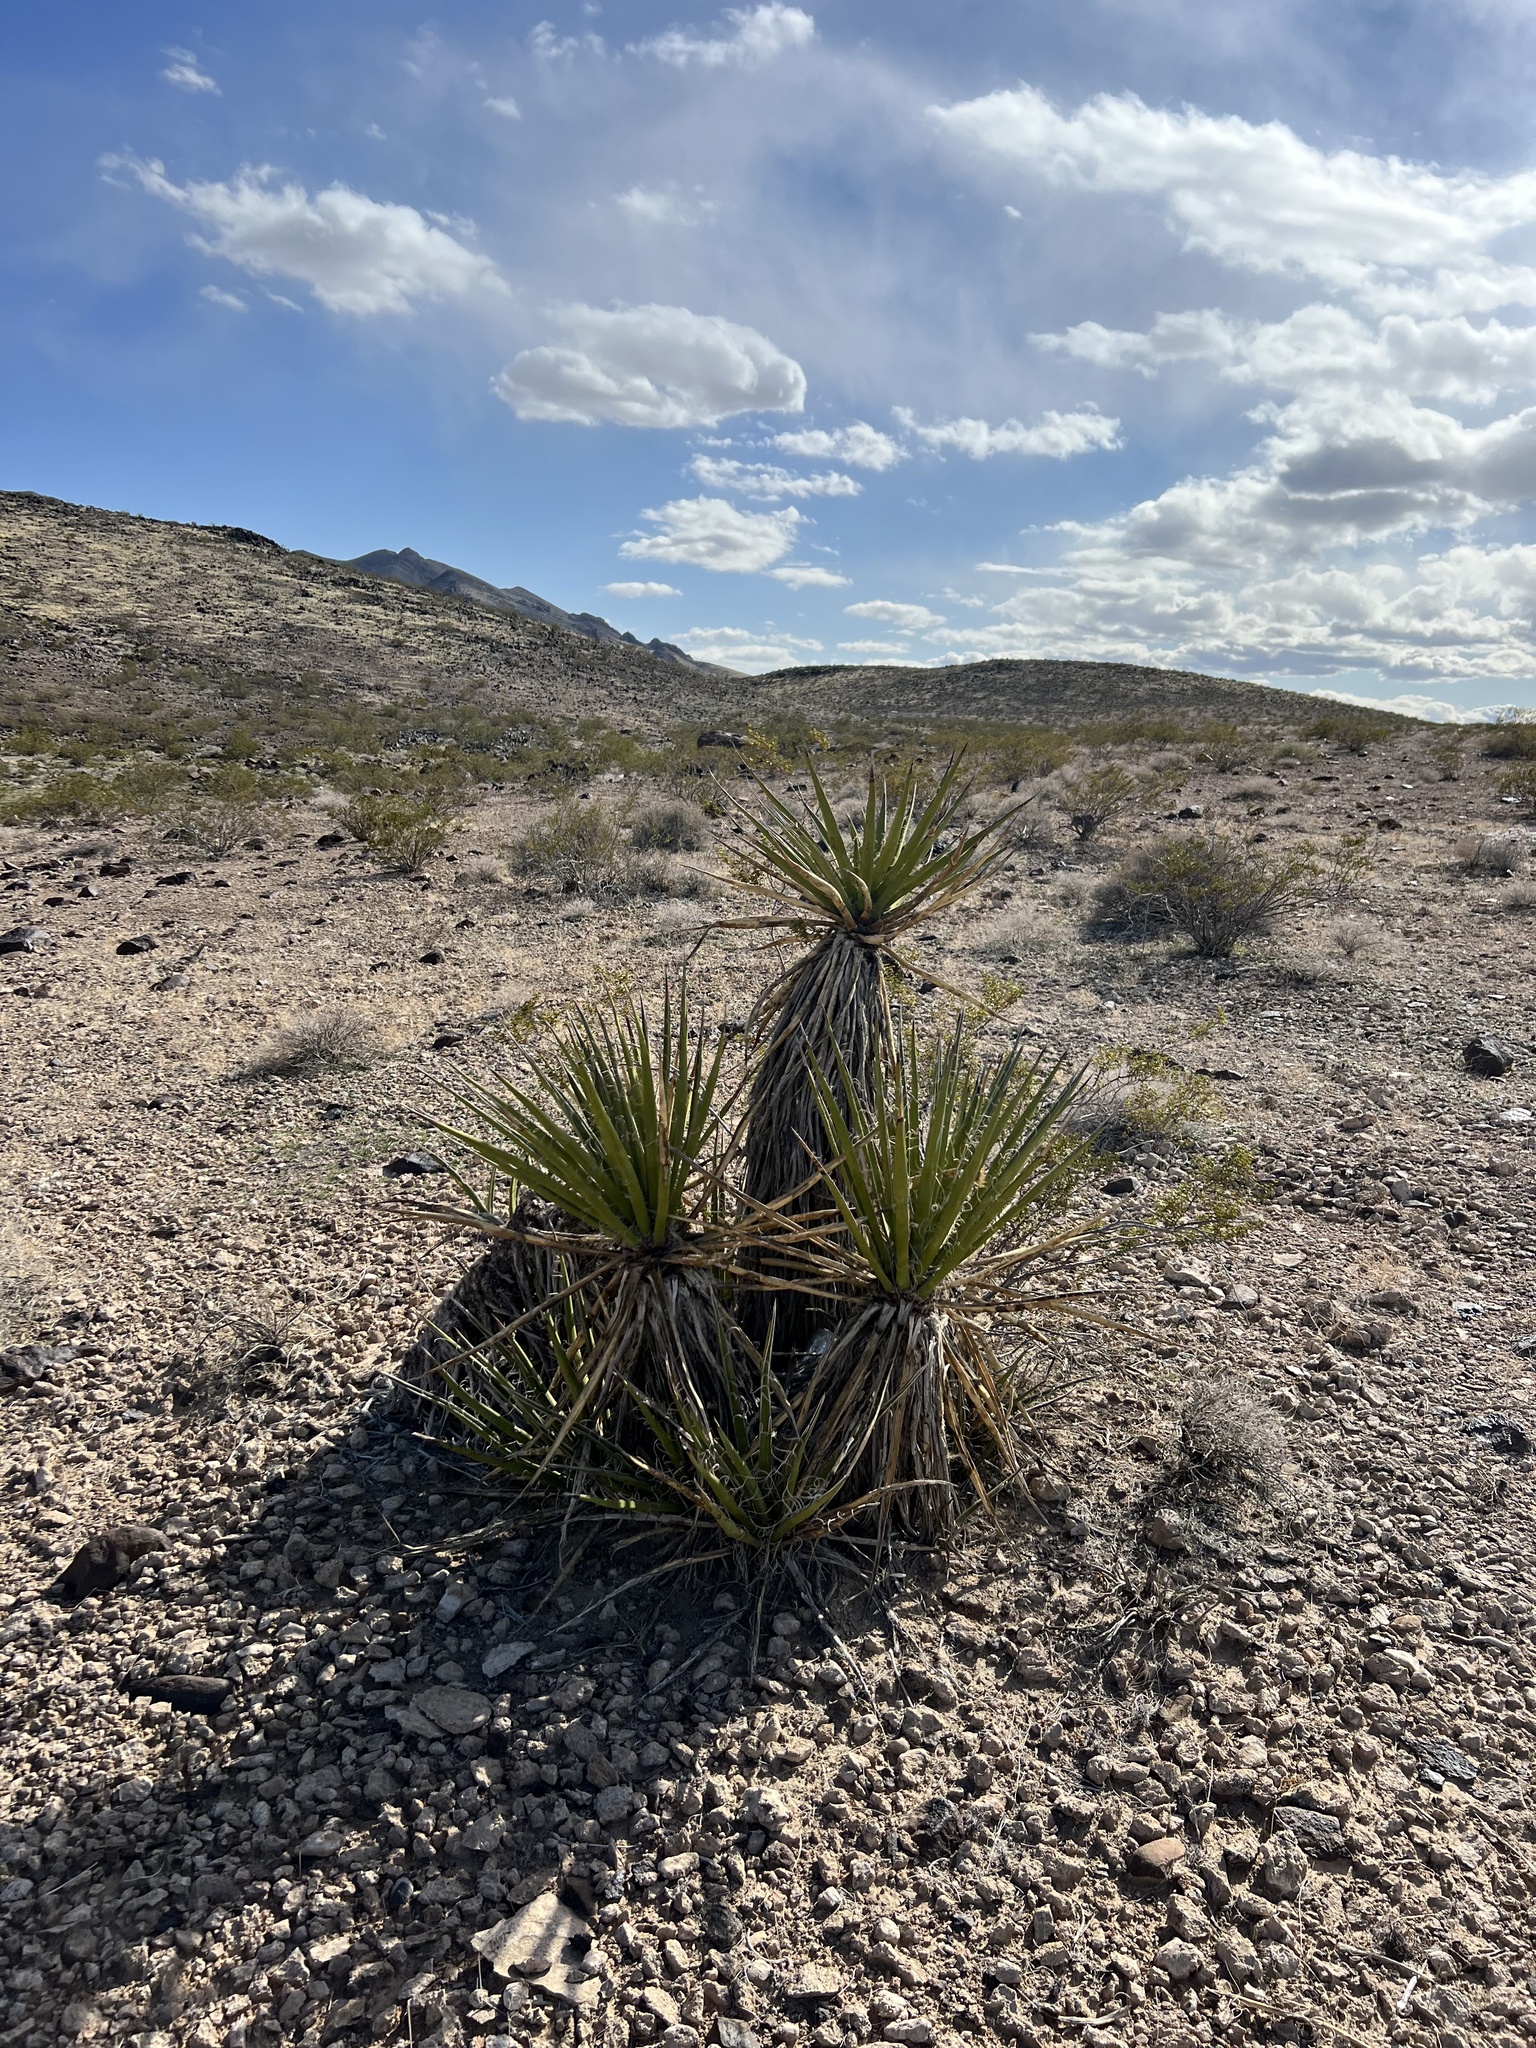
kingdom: Plantae
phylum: Tracheophyta
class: Liliopsida
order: Asparagales
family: Asparagaceae
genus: Yucca
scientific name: Yucca schidigera
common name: Mojave yucca
